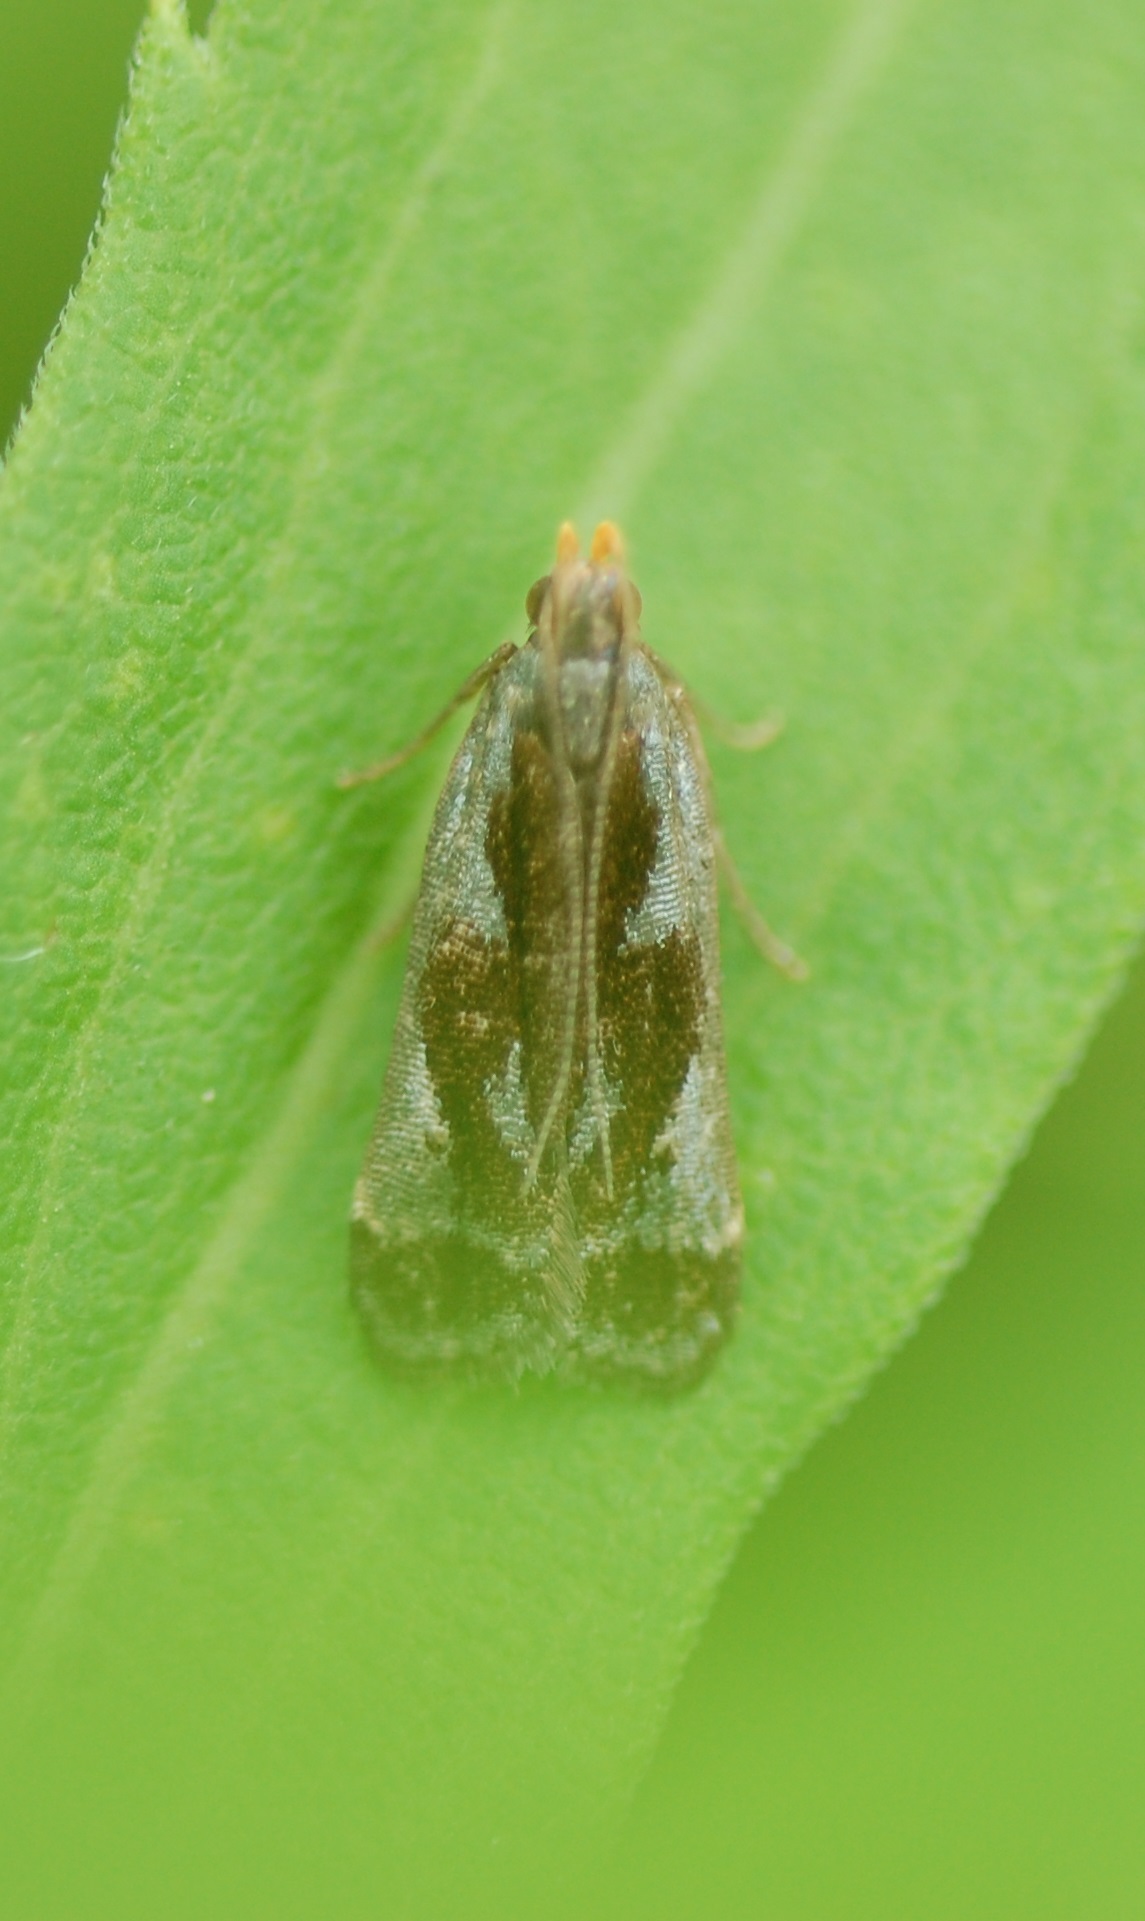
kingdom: Animalia
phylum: Arthropoda
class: Insecta
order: Lepidoptera
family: Gelechiidae
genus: Dichomeris
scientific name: Dichomeris ochripalpella
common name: Shining dichomeris moth
